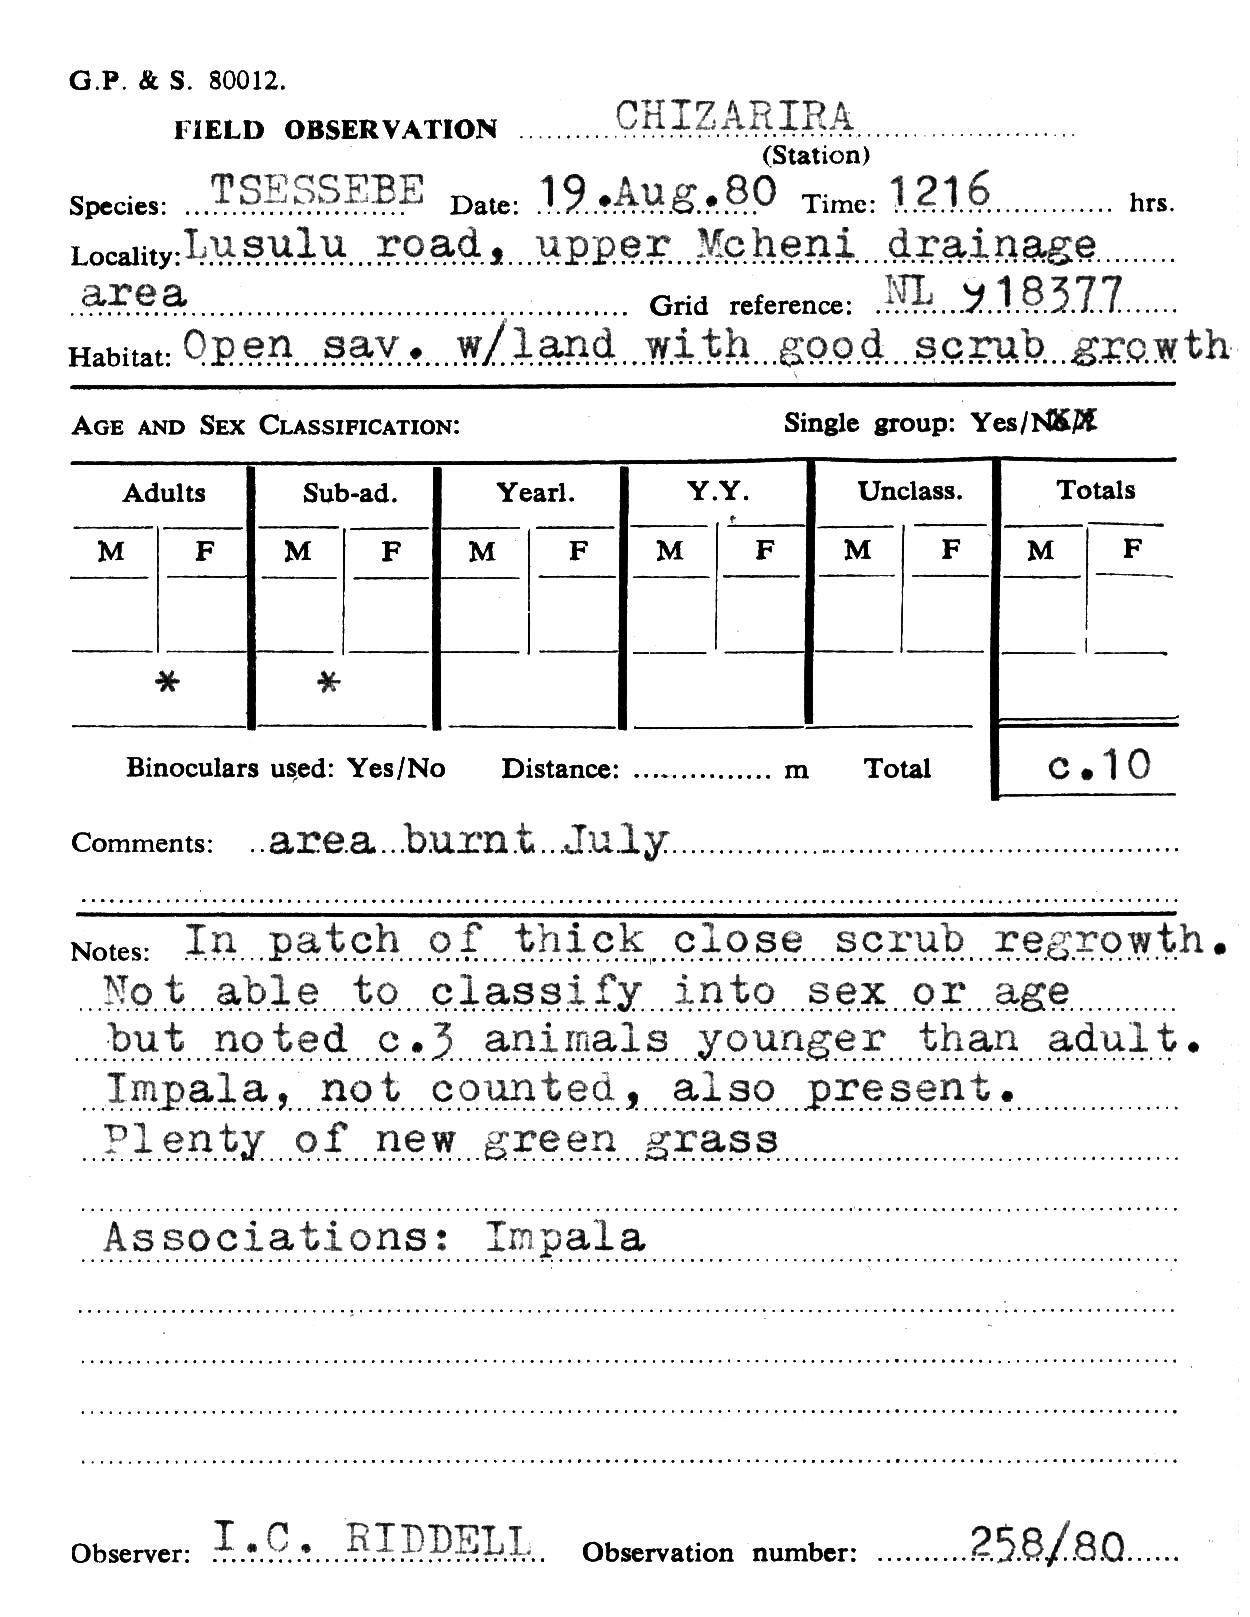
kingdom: Animalia
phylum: Chordata
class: Mammalia
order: Artiodactyla
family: Bovidae
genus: Damaliscus
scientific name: Damaliscus lunatus
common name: Common tsessebe
